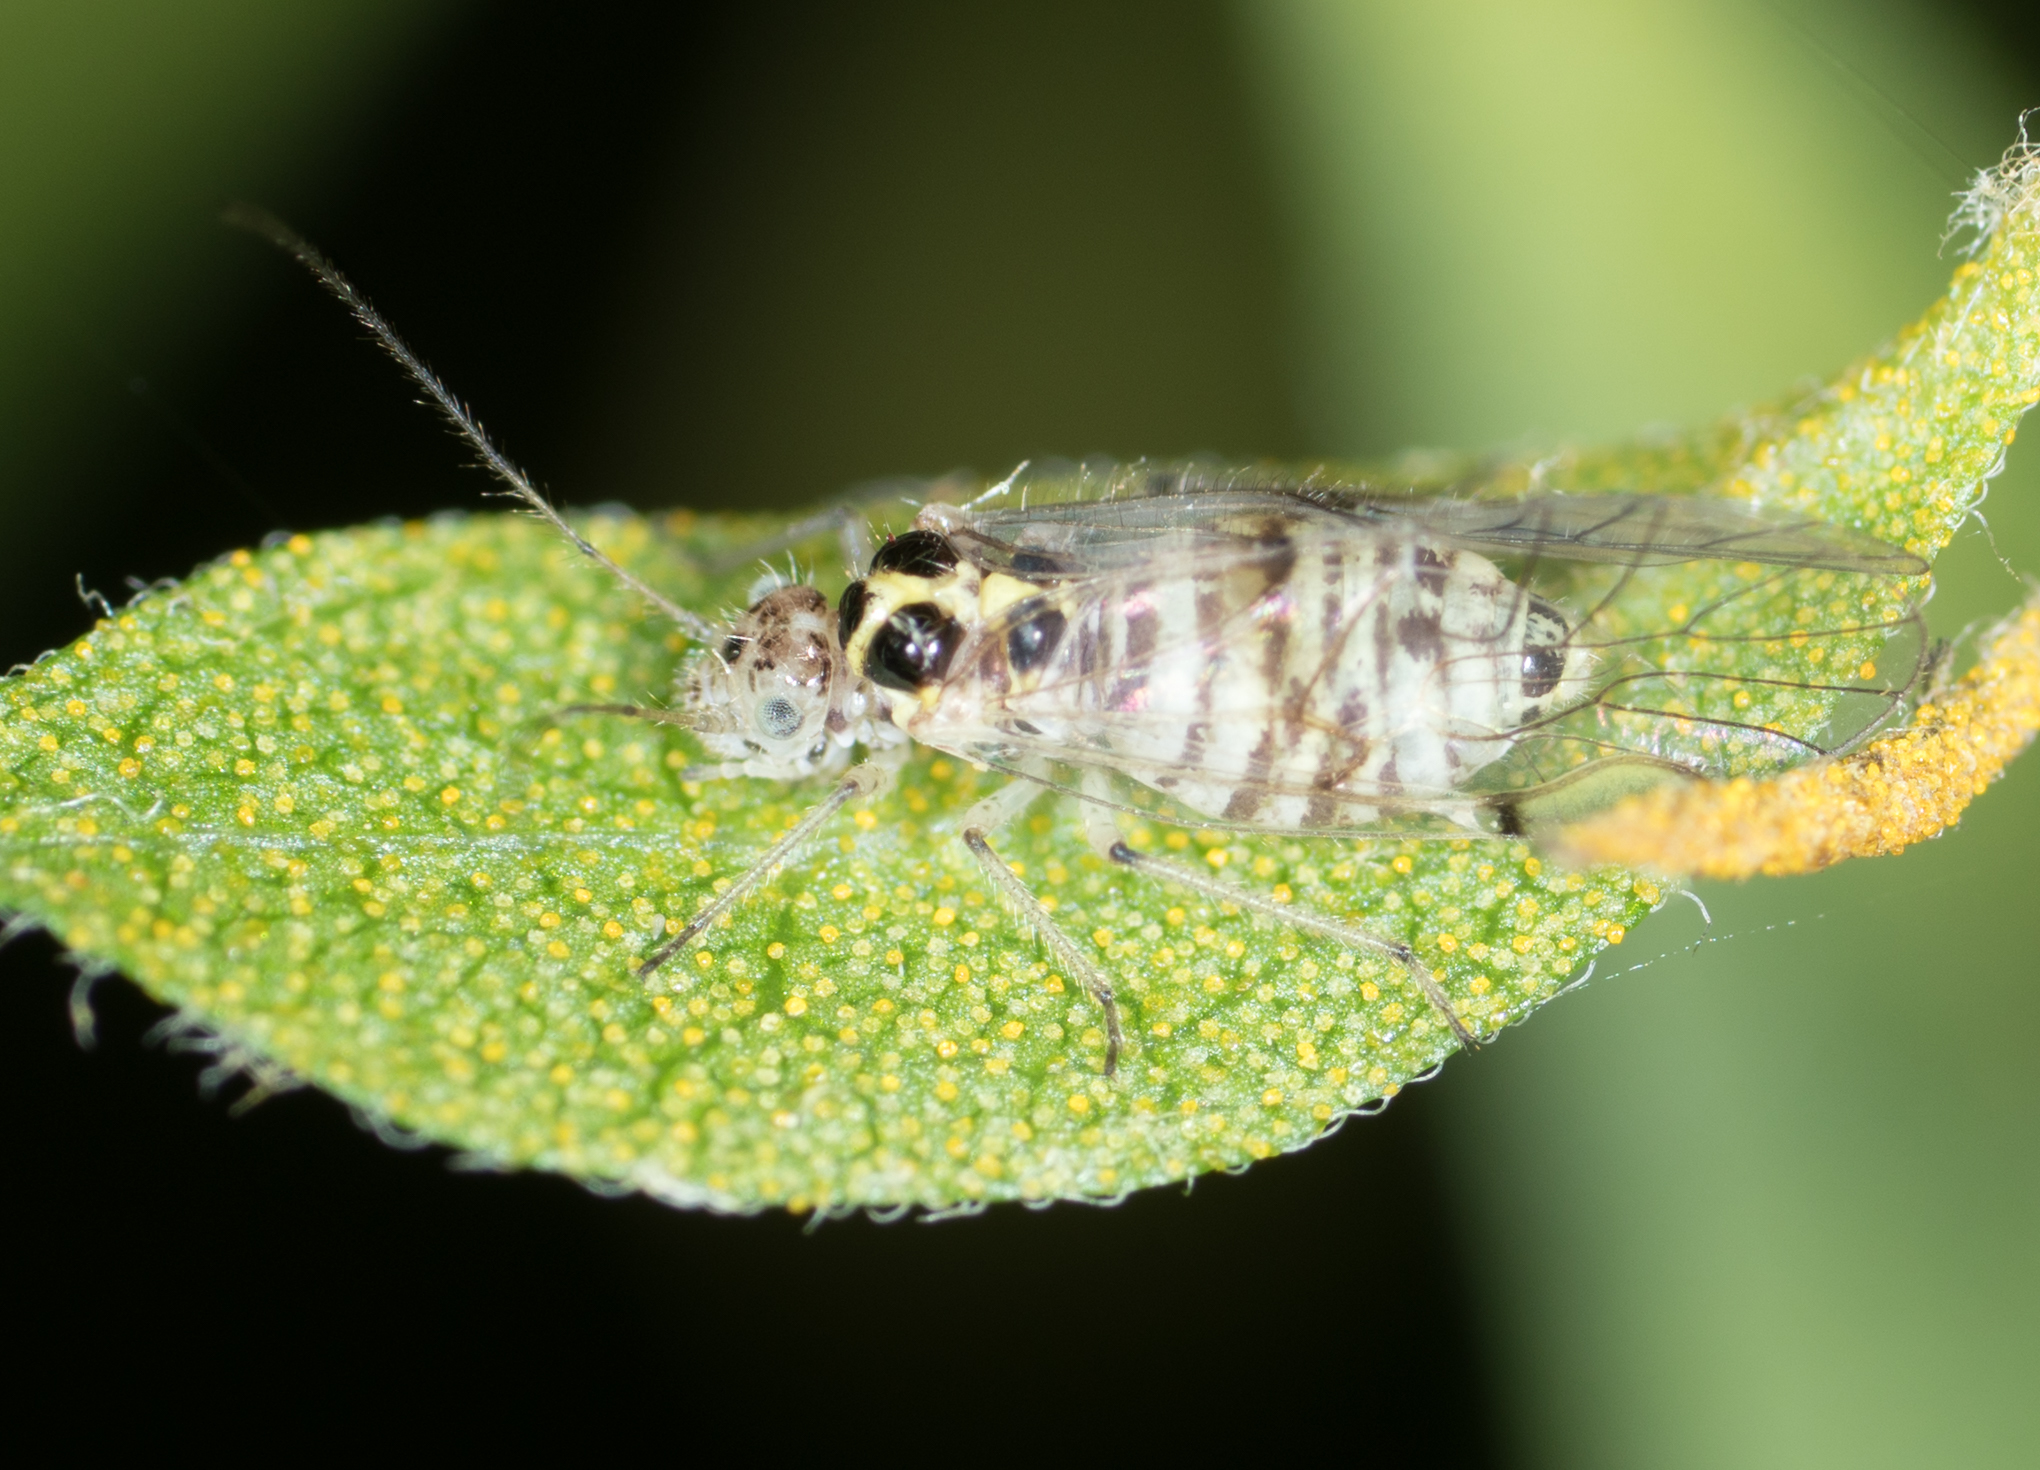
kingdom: Animalia
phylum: Arthropoda
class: Insecta
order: Psocodea
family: Dasydemellidae
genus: Teliapsocus
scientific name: Teliapsocus conterminus
